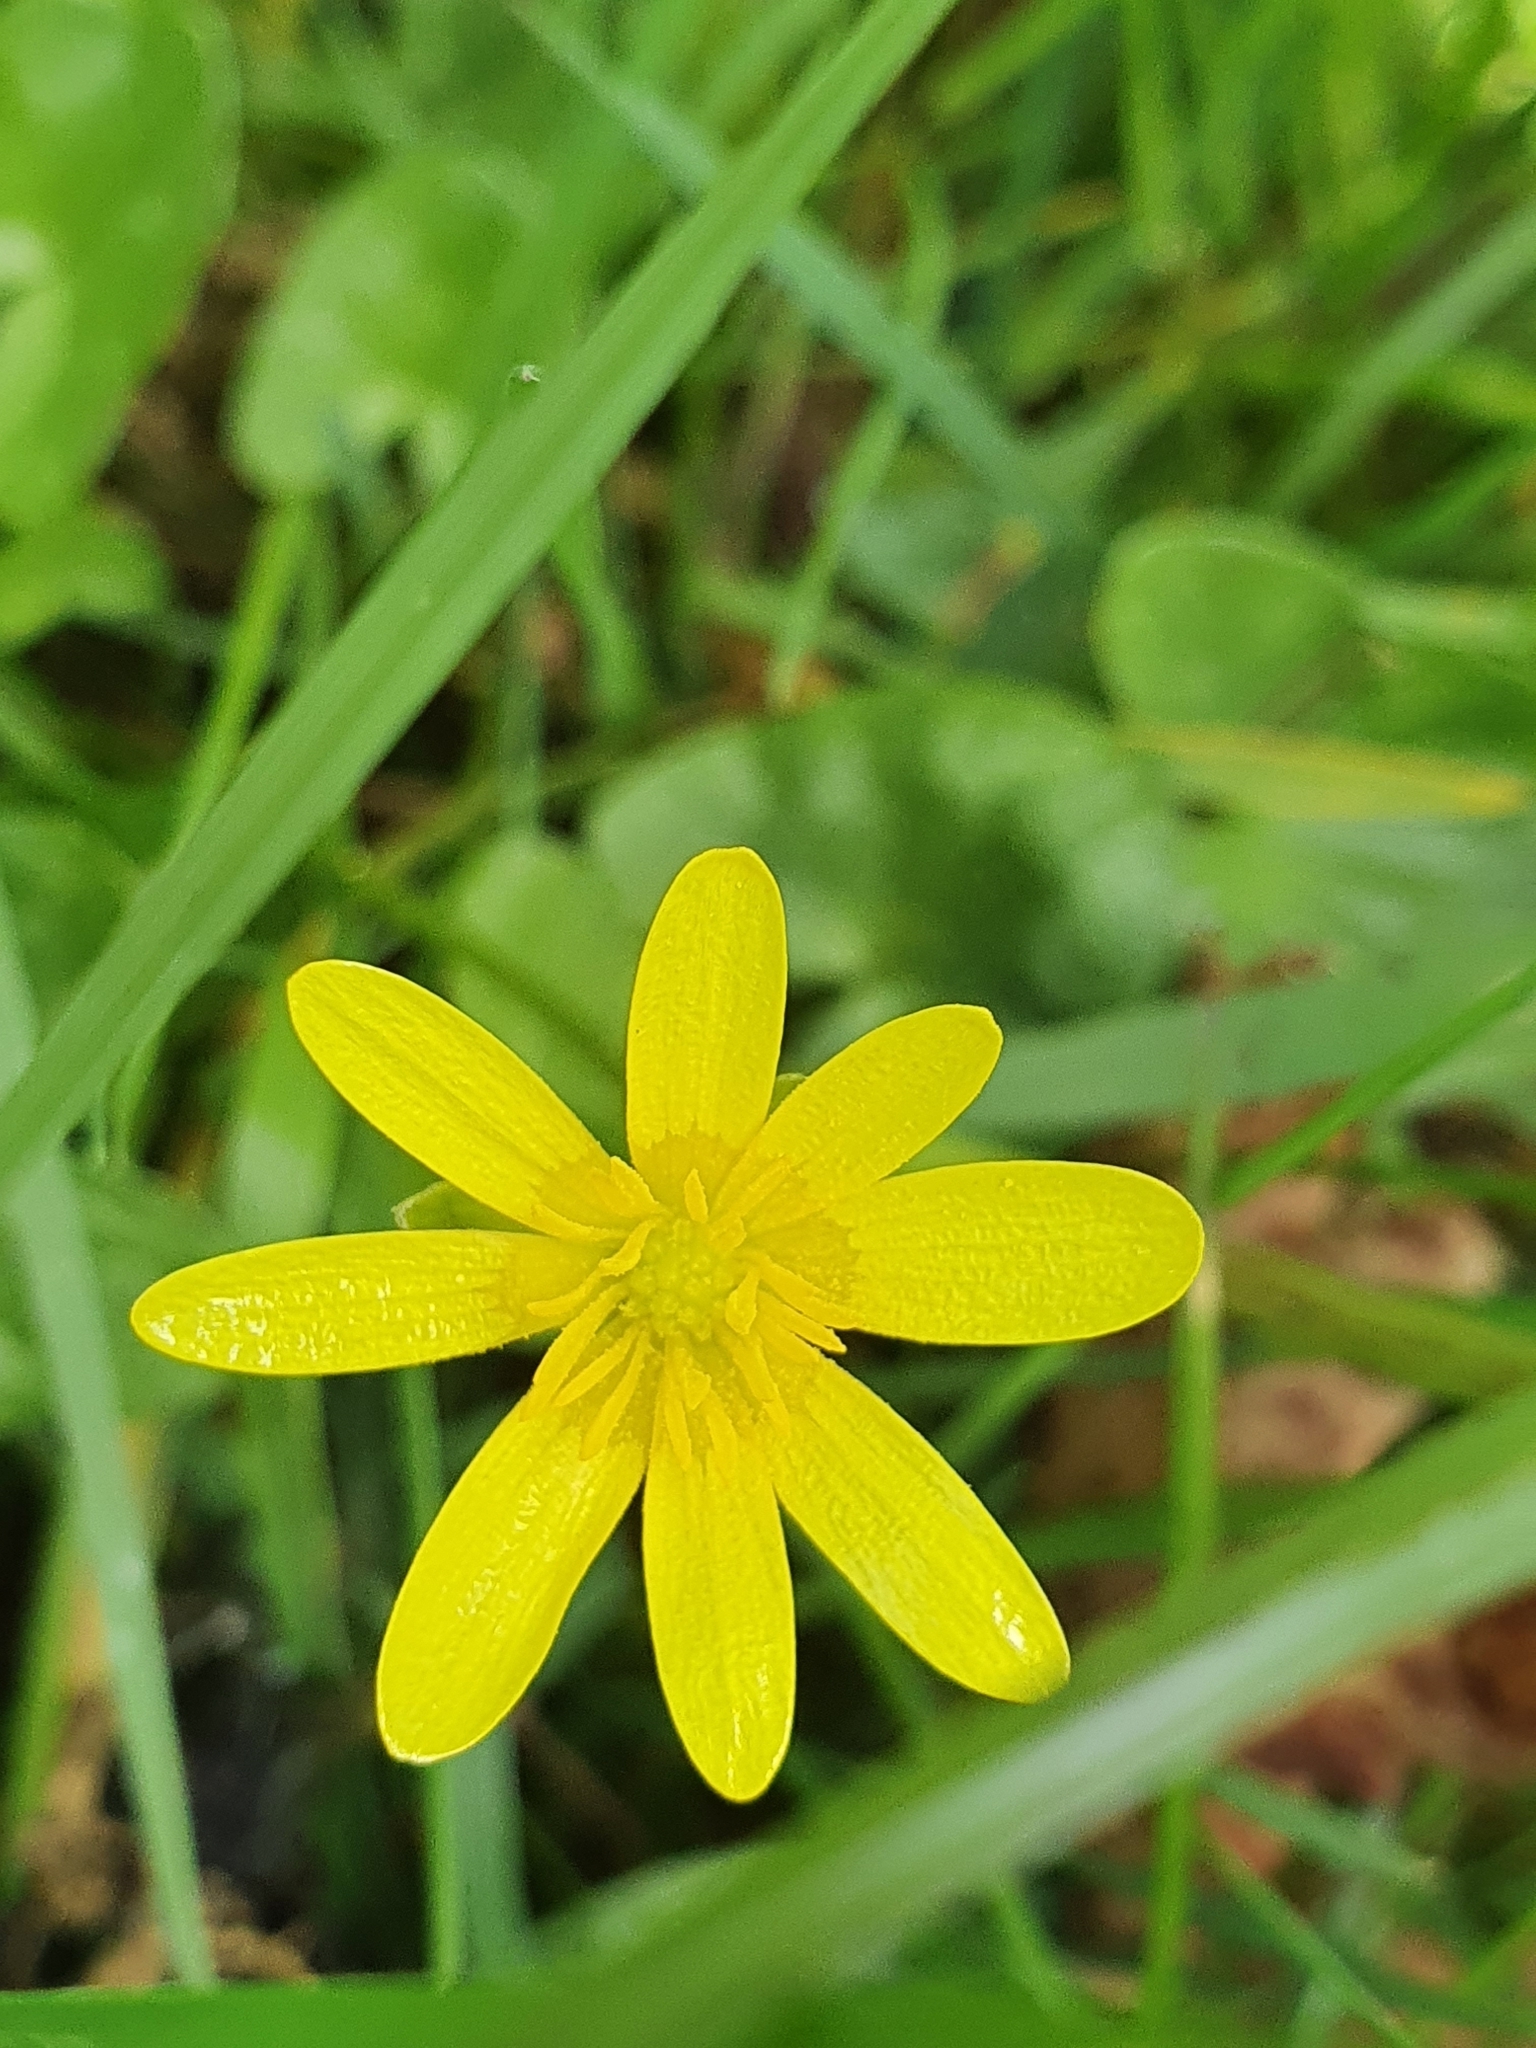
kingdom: Plantae
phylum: Tracheophyta
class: Magnoliopsida
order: Ranunculales
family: Ranunculaceae
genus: Ficaria
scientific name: Ficaria verna
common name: Lesser celandine
